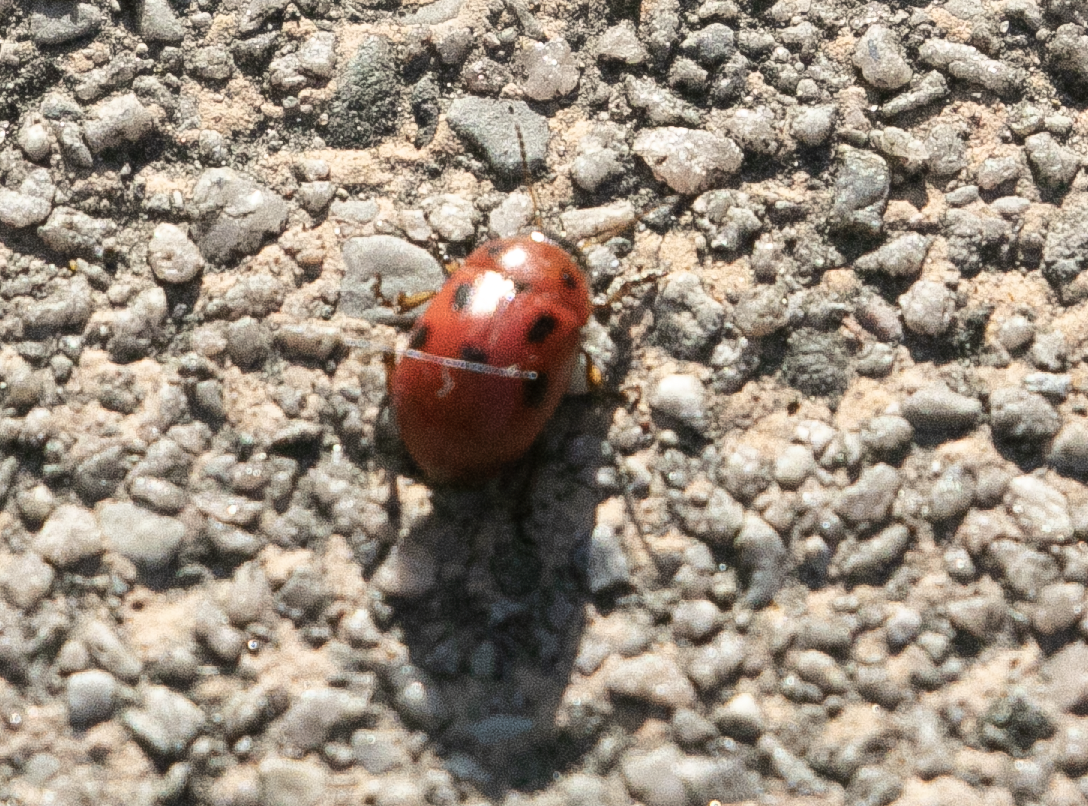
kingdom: Animalia
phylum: Arthropoda
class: Insecta
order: Coleoptera
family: Chrysomelidae
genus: Gonioctena
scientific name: Gonioctena fornicata
